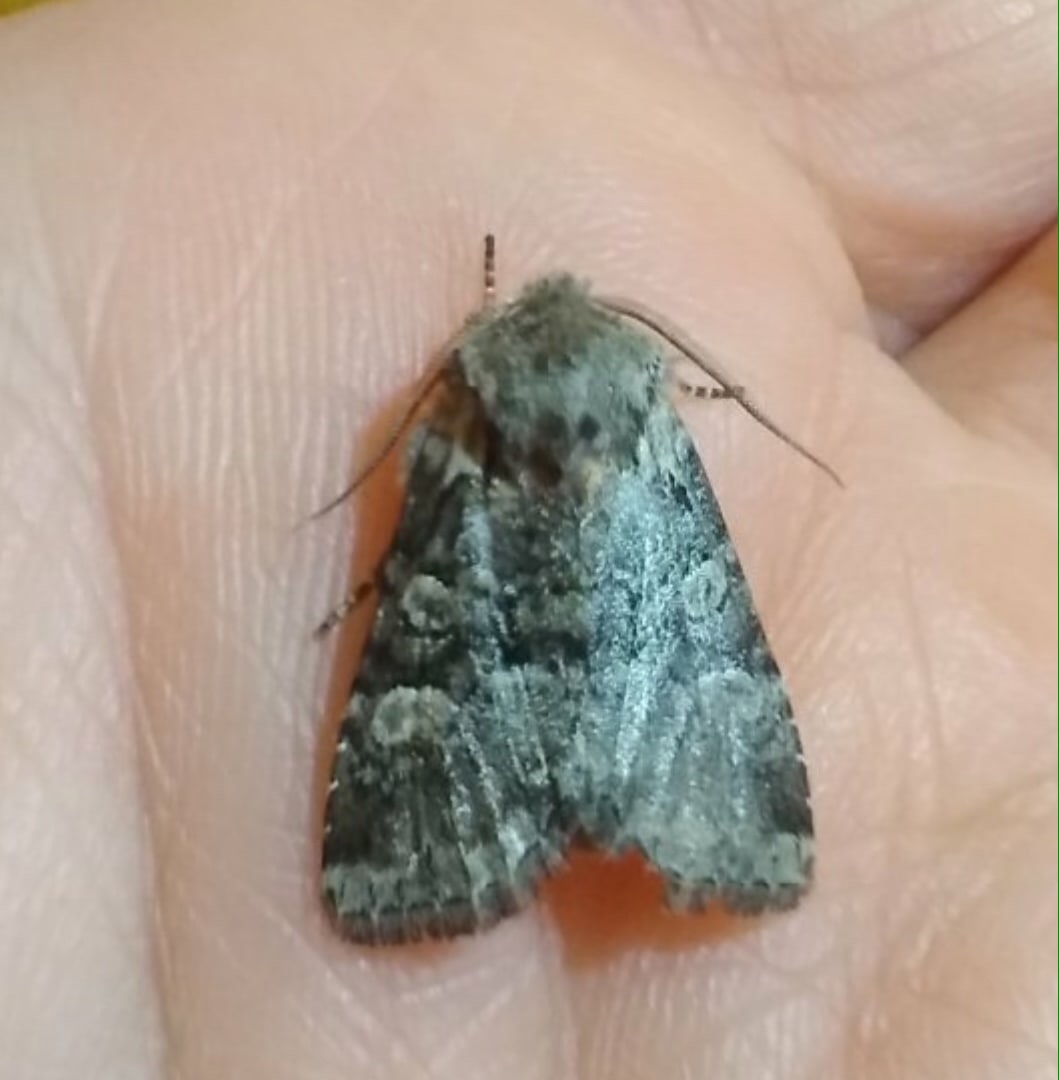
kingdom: Animalia
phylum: Arthropoda
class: Insecta
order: Lepidoptera
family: Noctuidae
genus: Brachylomia
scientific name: Brachylomia viminalis
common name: Minor shoulder-knot
